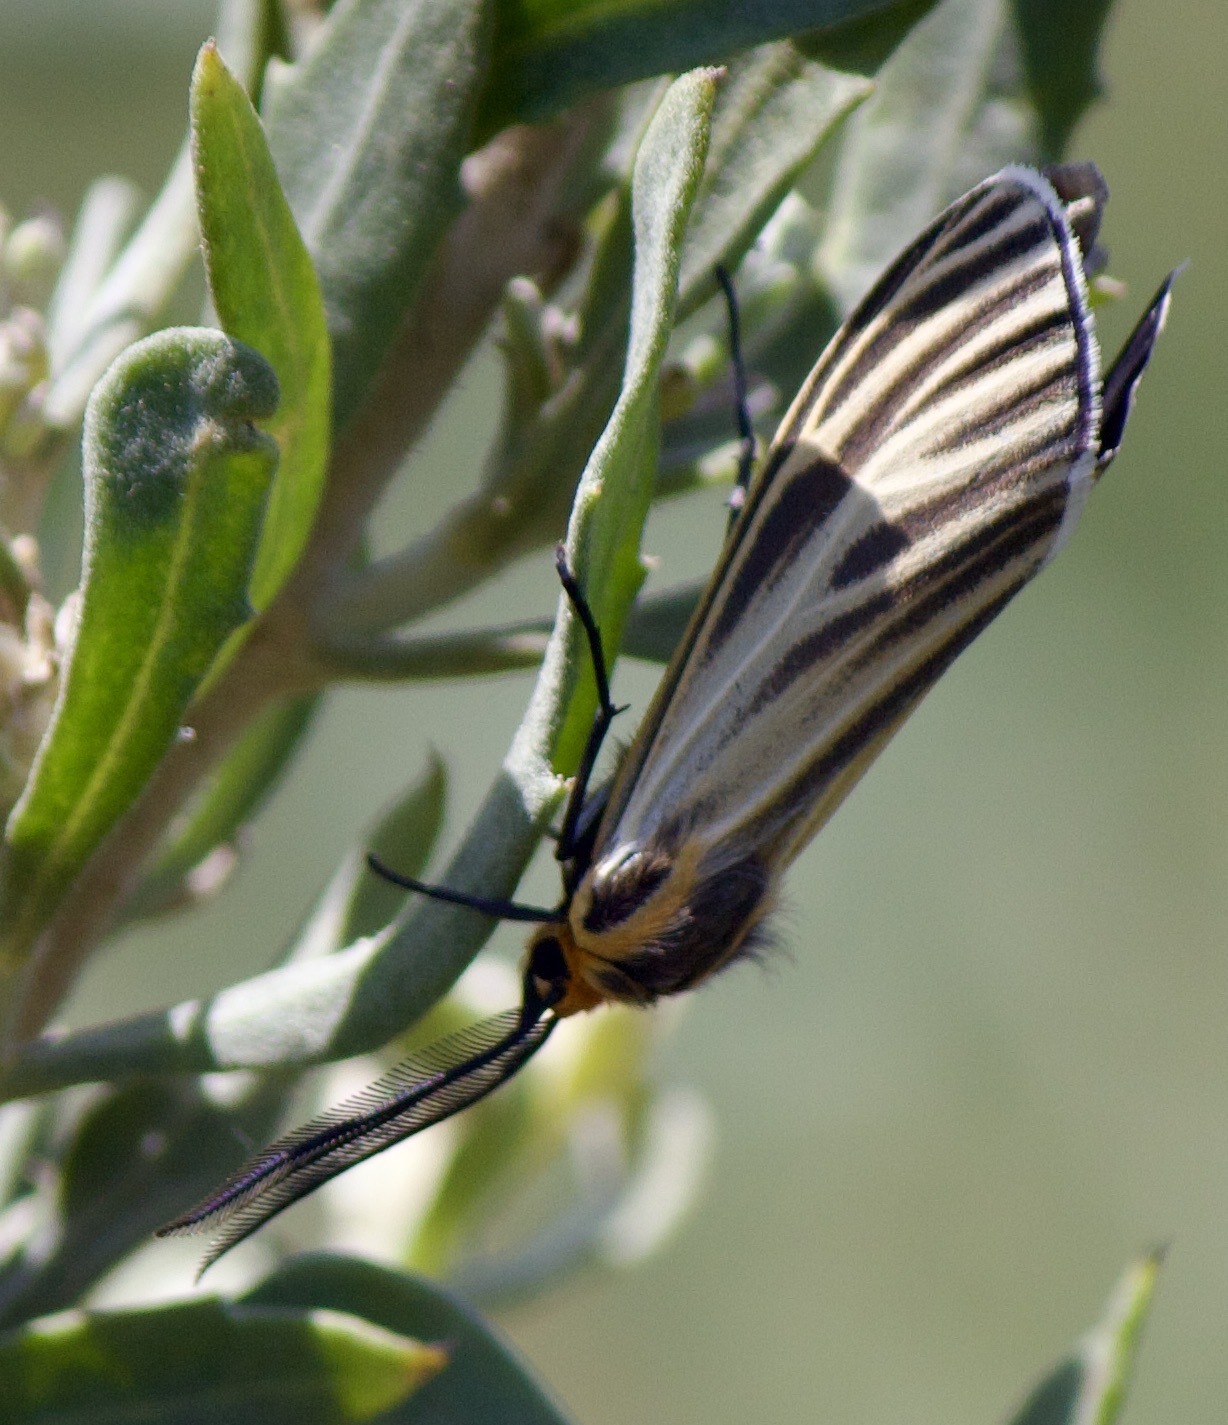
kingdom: Animalia
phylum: Arthropoda
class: Insecta
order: Lepidoptera
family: Erebidae
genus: Ctenucha
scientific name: Ctenucha vittigerum
